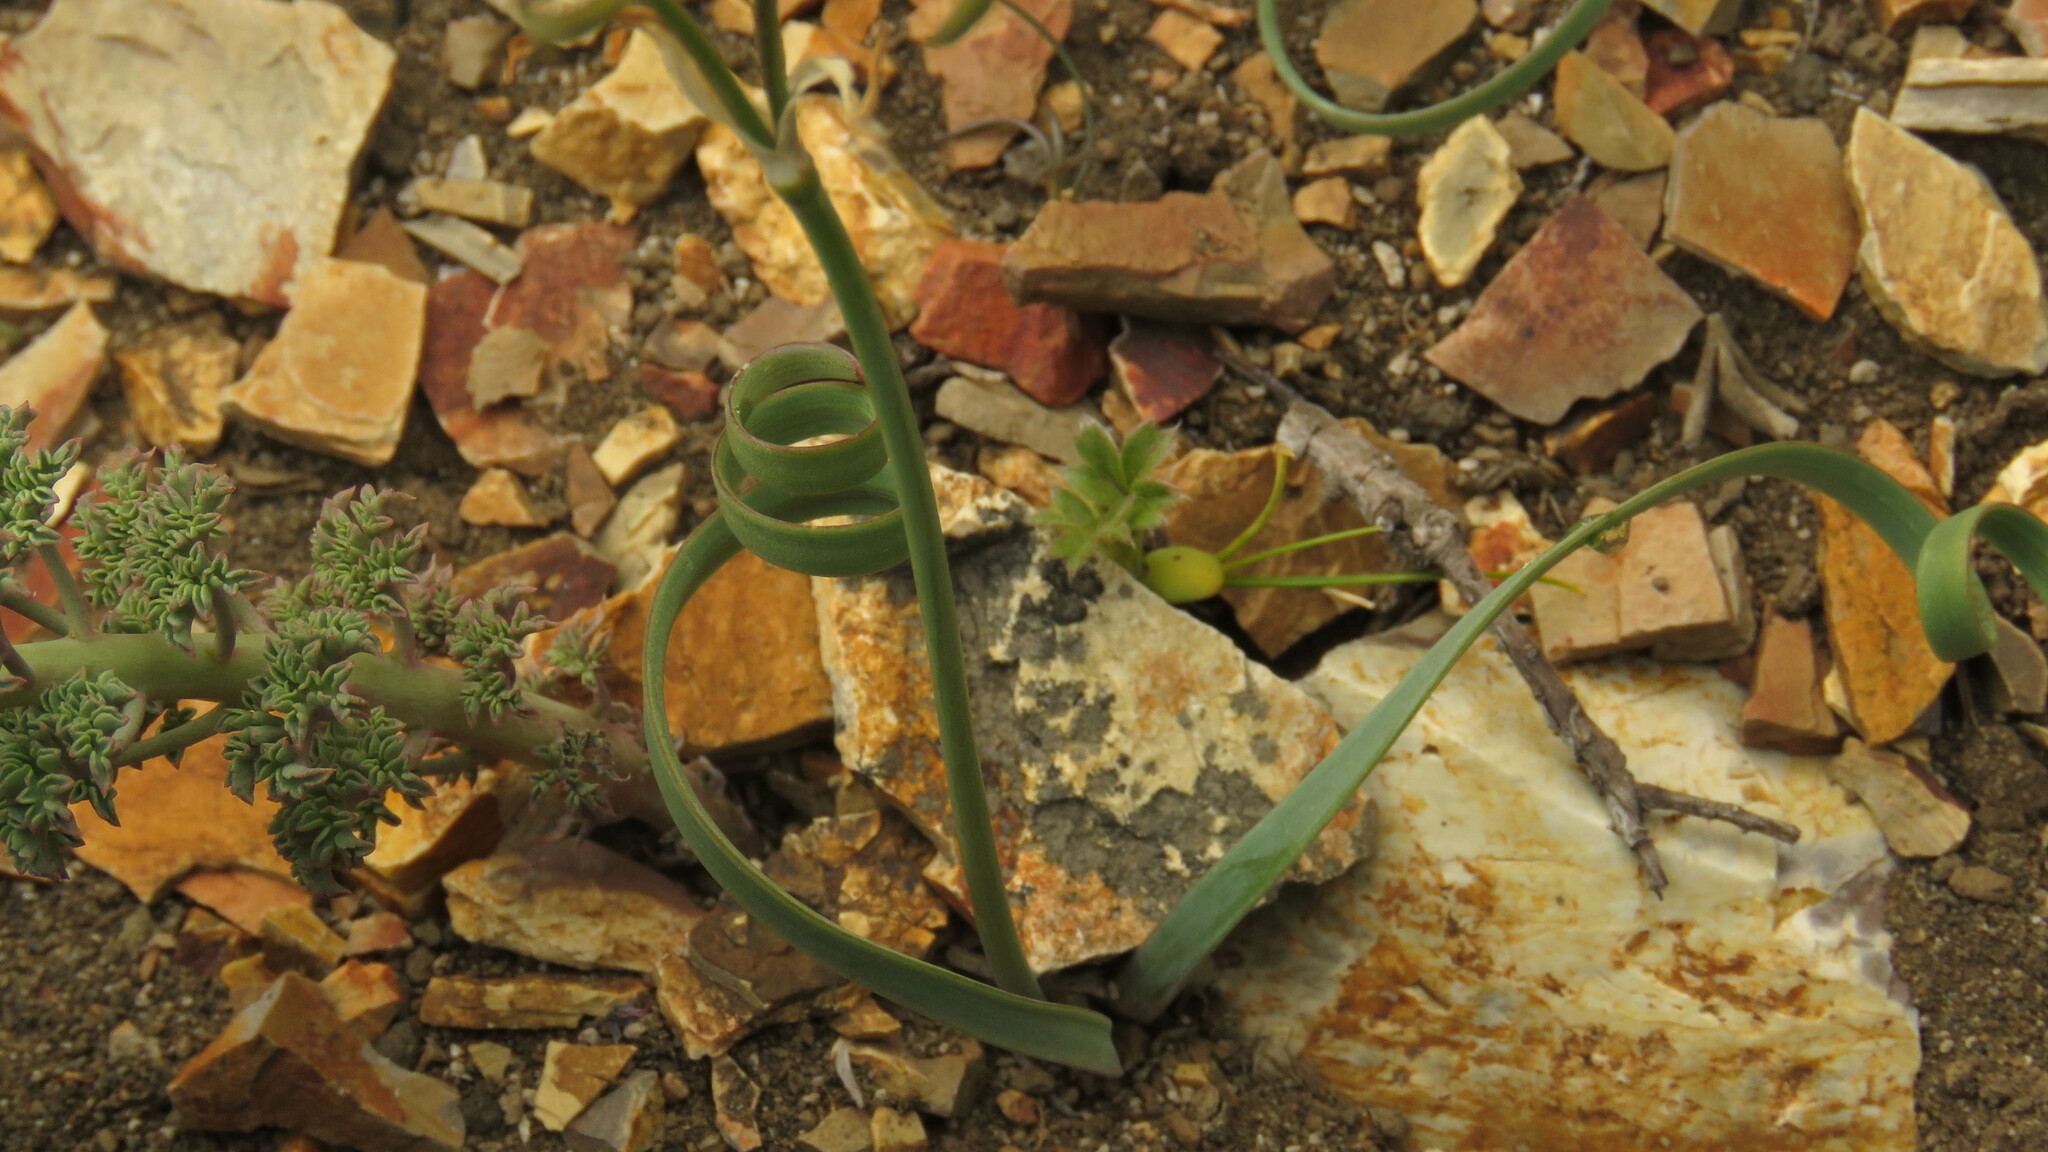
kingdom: Plantae
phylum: Tracheophyta
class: Liliopsida
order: Asparagales
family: Amaryllidaceae
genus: Tristagma
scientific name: Tristagma nivale
